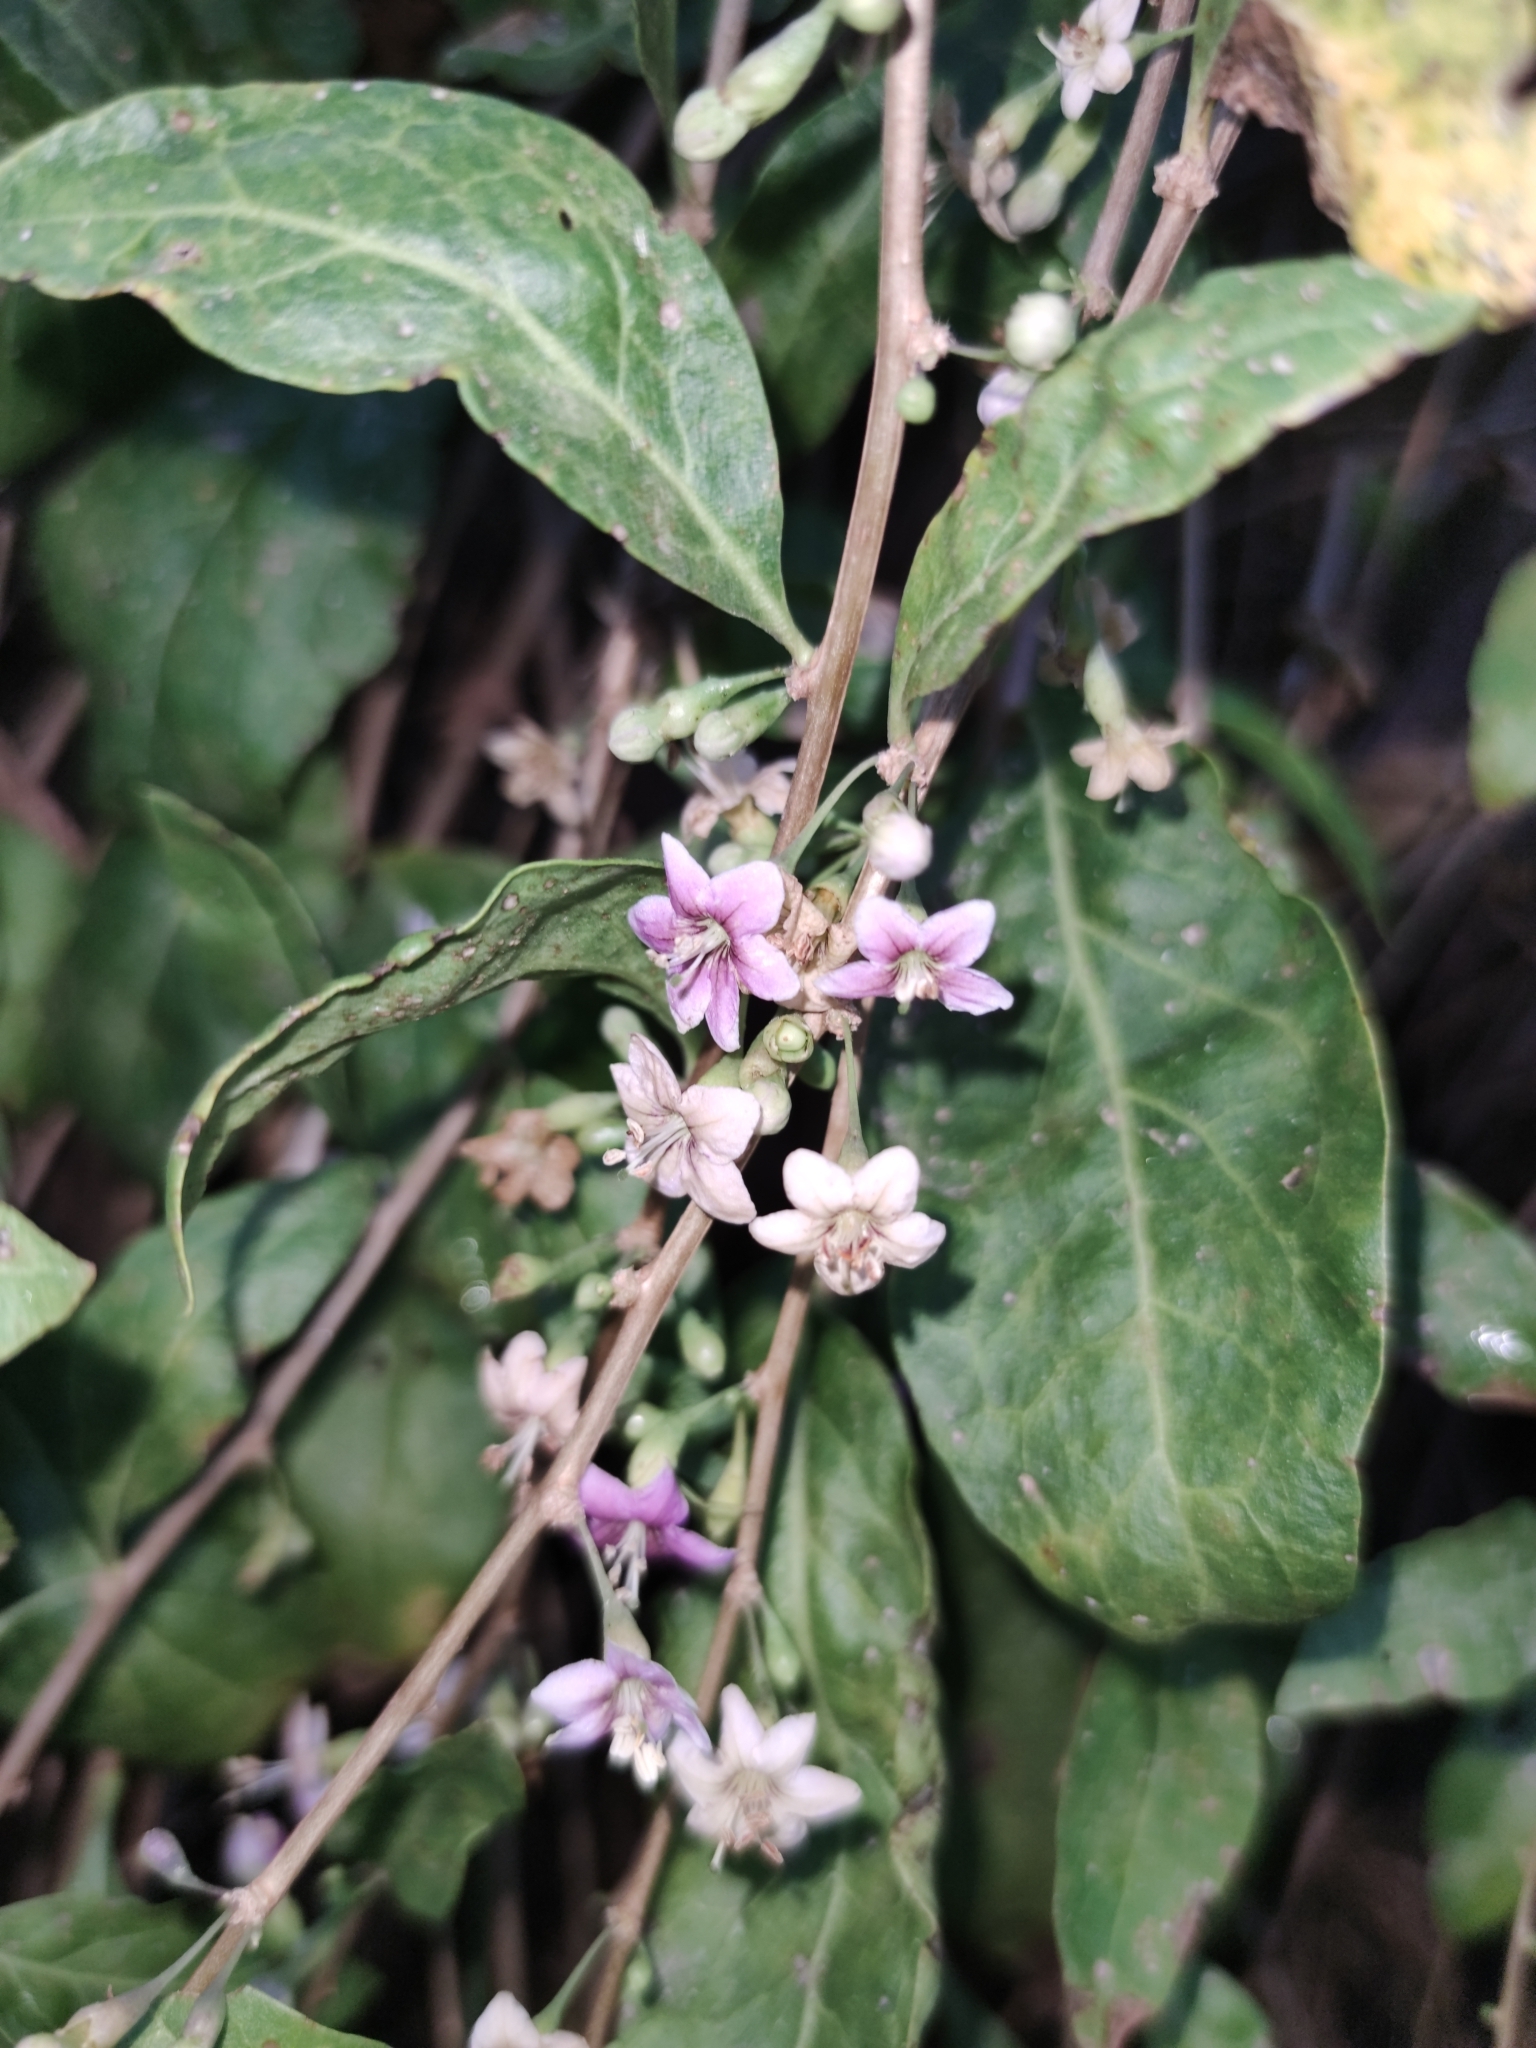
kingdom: Plantae
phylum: Tracheophyta
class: Magnoliopsida
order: Solanales
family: Solanaceae
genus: Lycium
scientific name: Lycium barbarum
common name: Duke of argyll's teaplant
